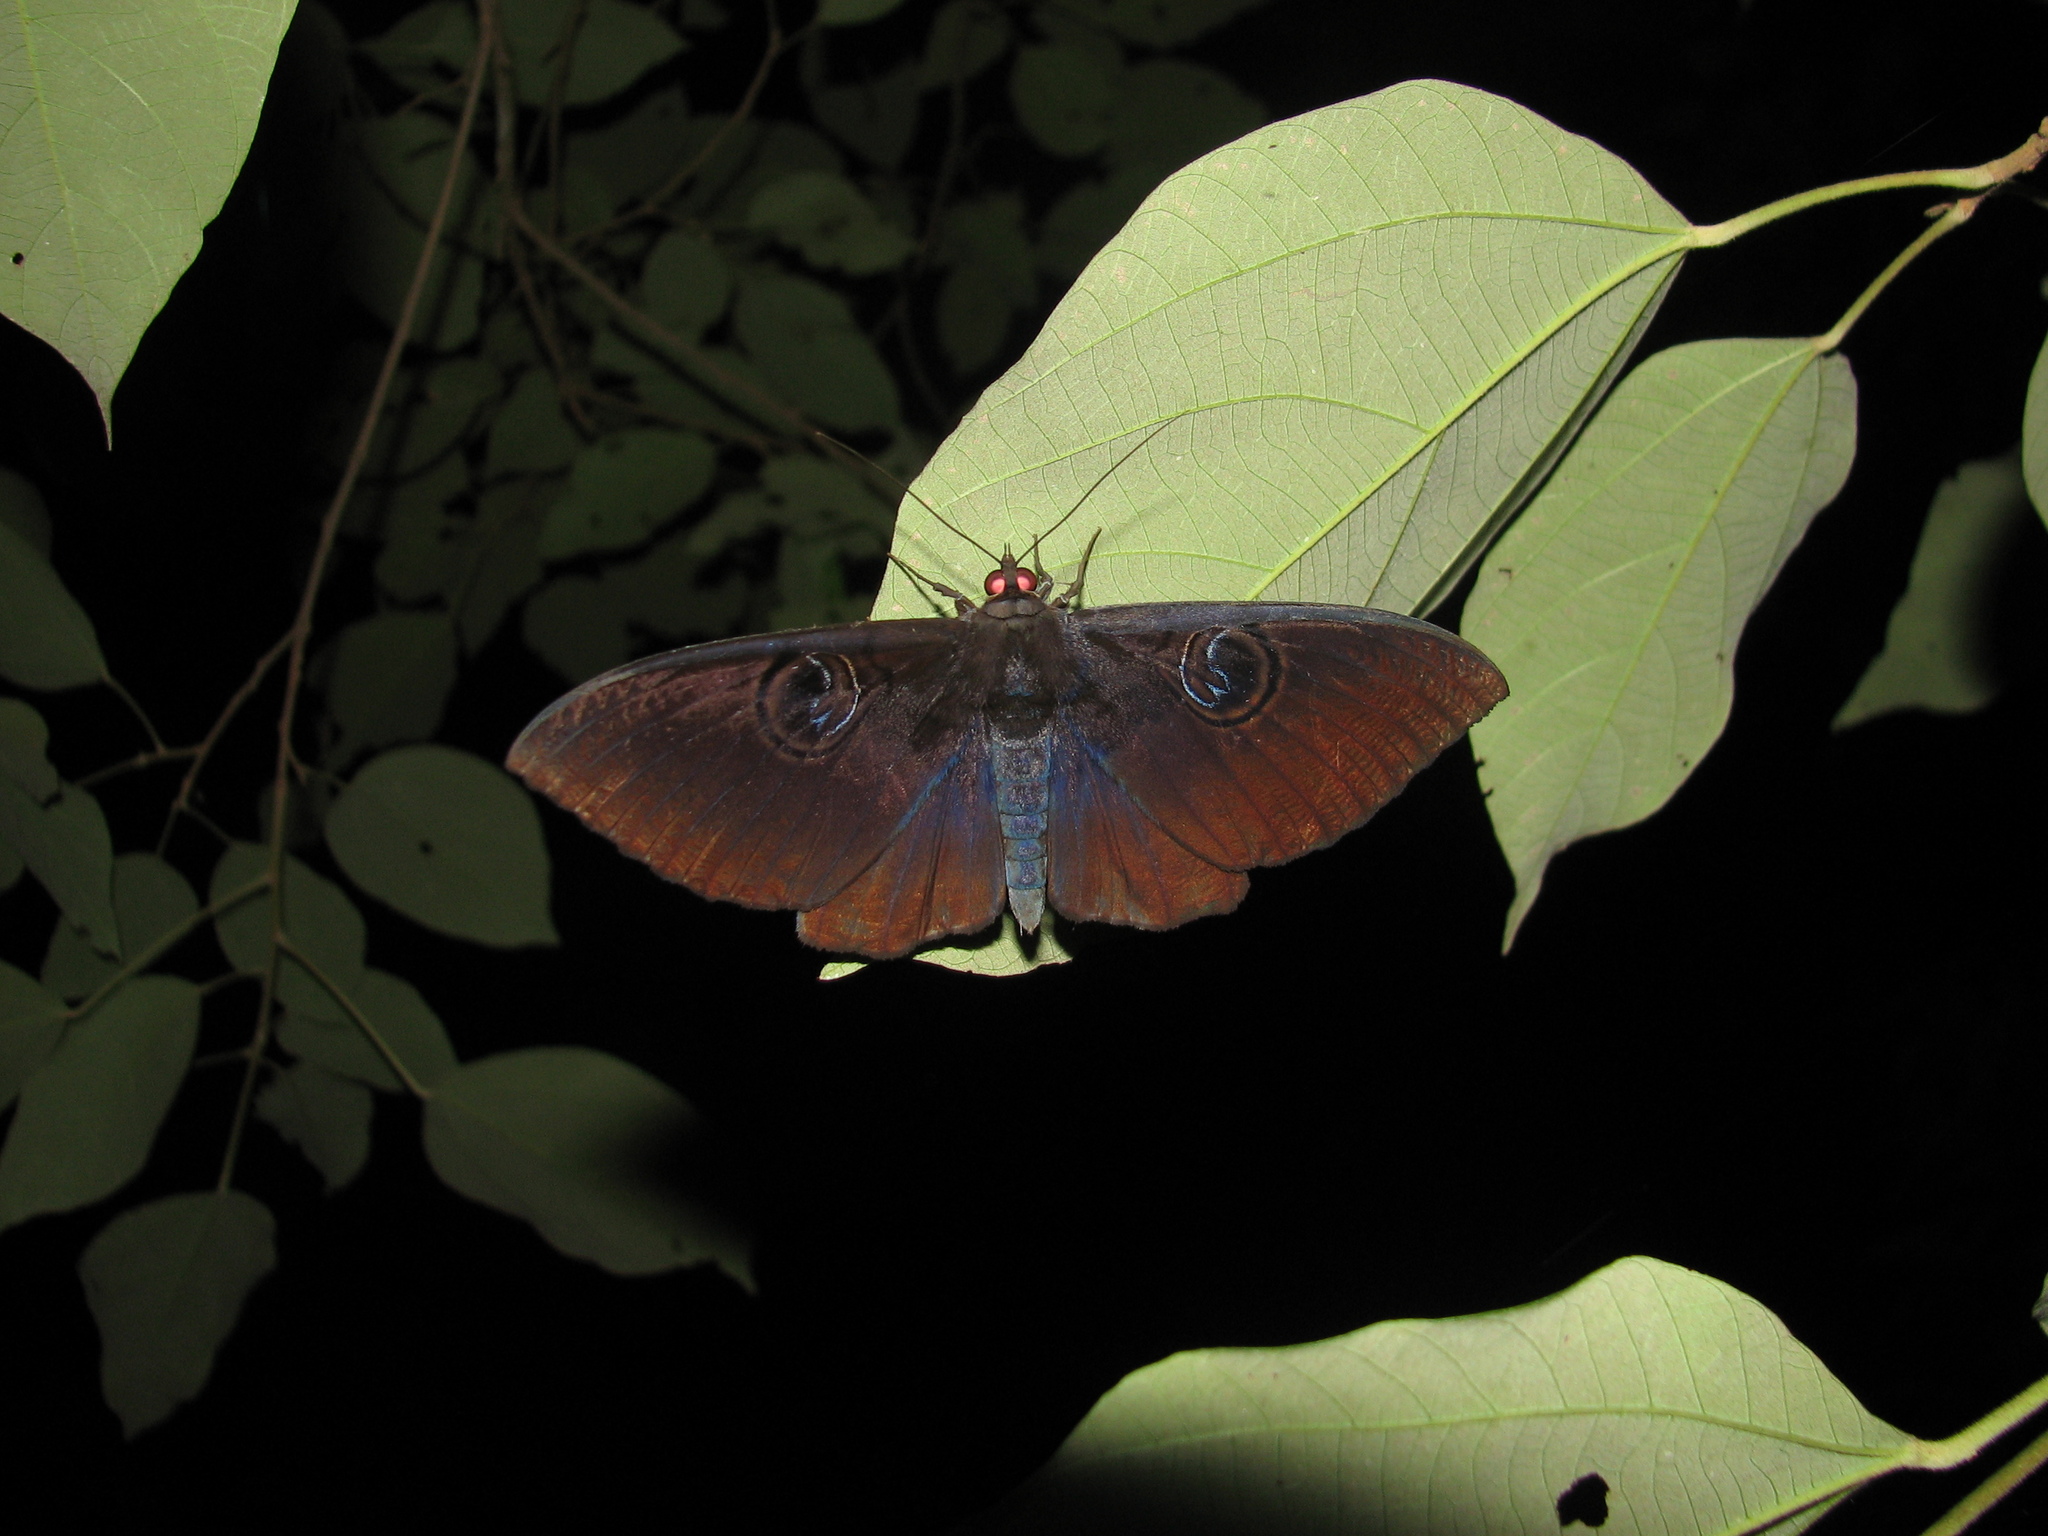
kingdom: Animalia
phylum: Arthropoda
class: Insecta
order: Lepidoptera
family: Erebidae
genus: Erebus
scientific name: Erebus caprimulgus
